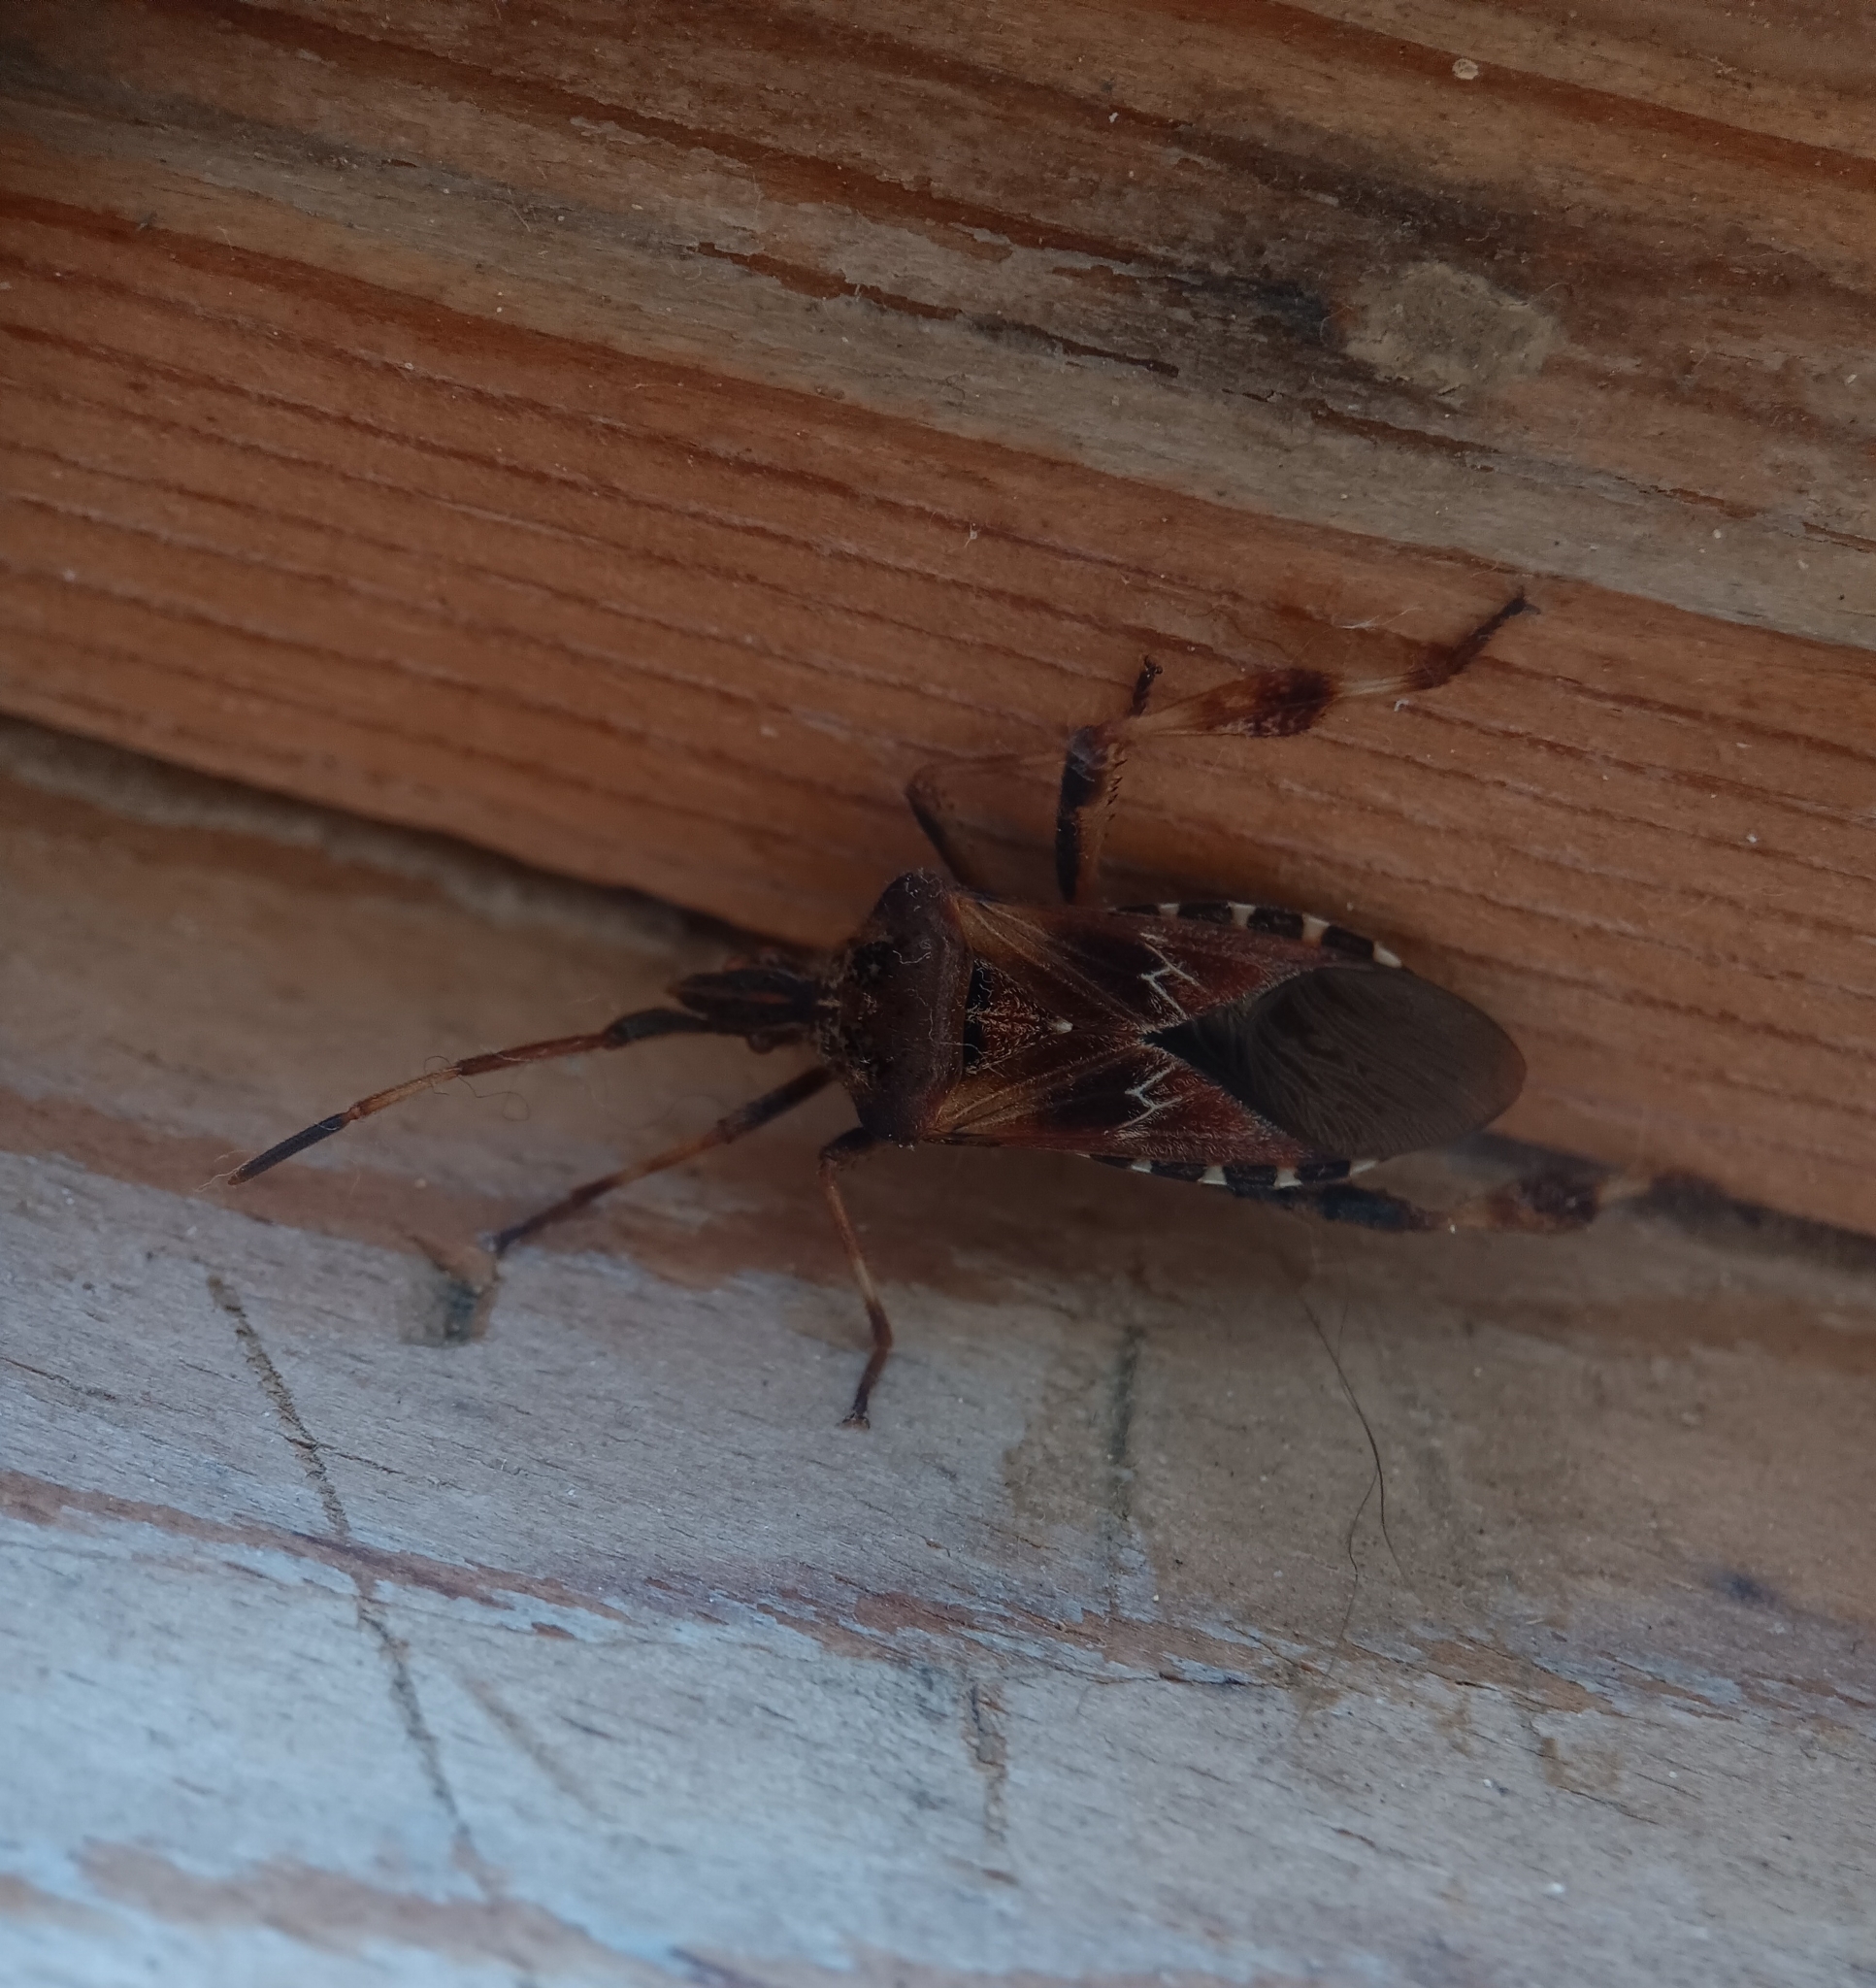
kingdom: Animalia
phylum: Arthropoda
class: Insecta
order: Hemiptera
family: Coreidae
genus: Leptoglossus
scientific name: Leptoglossus occidentalis
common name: Western conifer-seed bug
